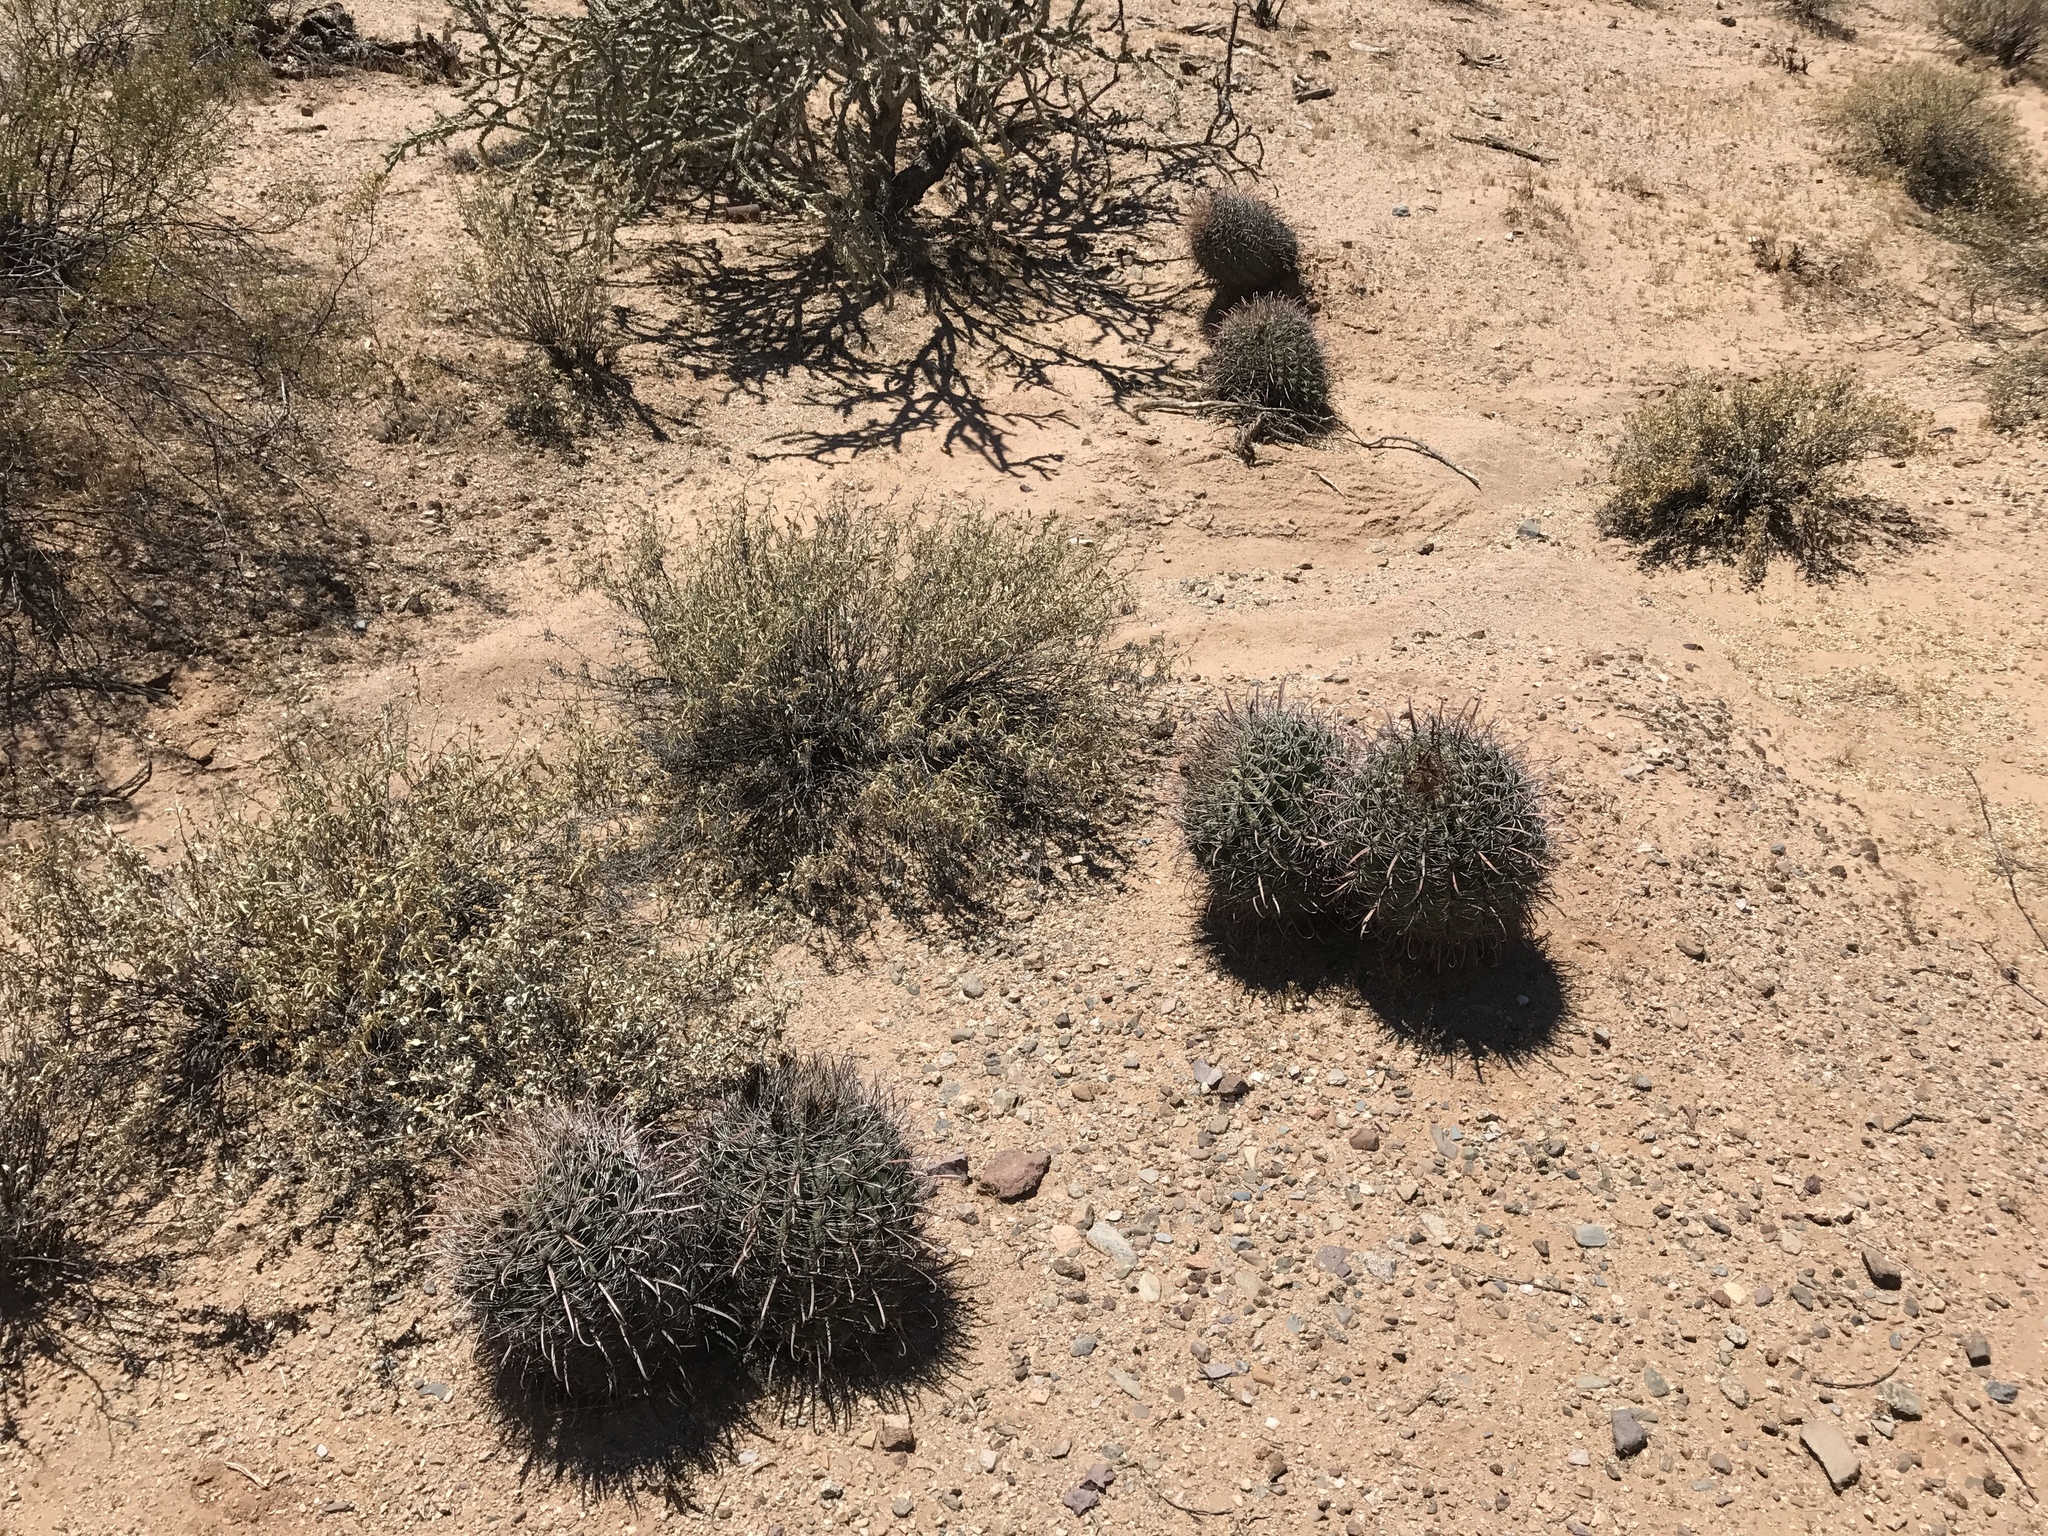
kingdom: Plantae
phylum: Tracheophyta
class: Magnoliopsida
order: Caryophyllales
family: Cactaceae
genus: Ferocactus
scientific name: Ferocactus wislizeni
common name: Candy barrel cactus
